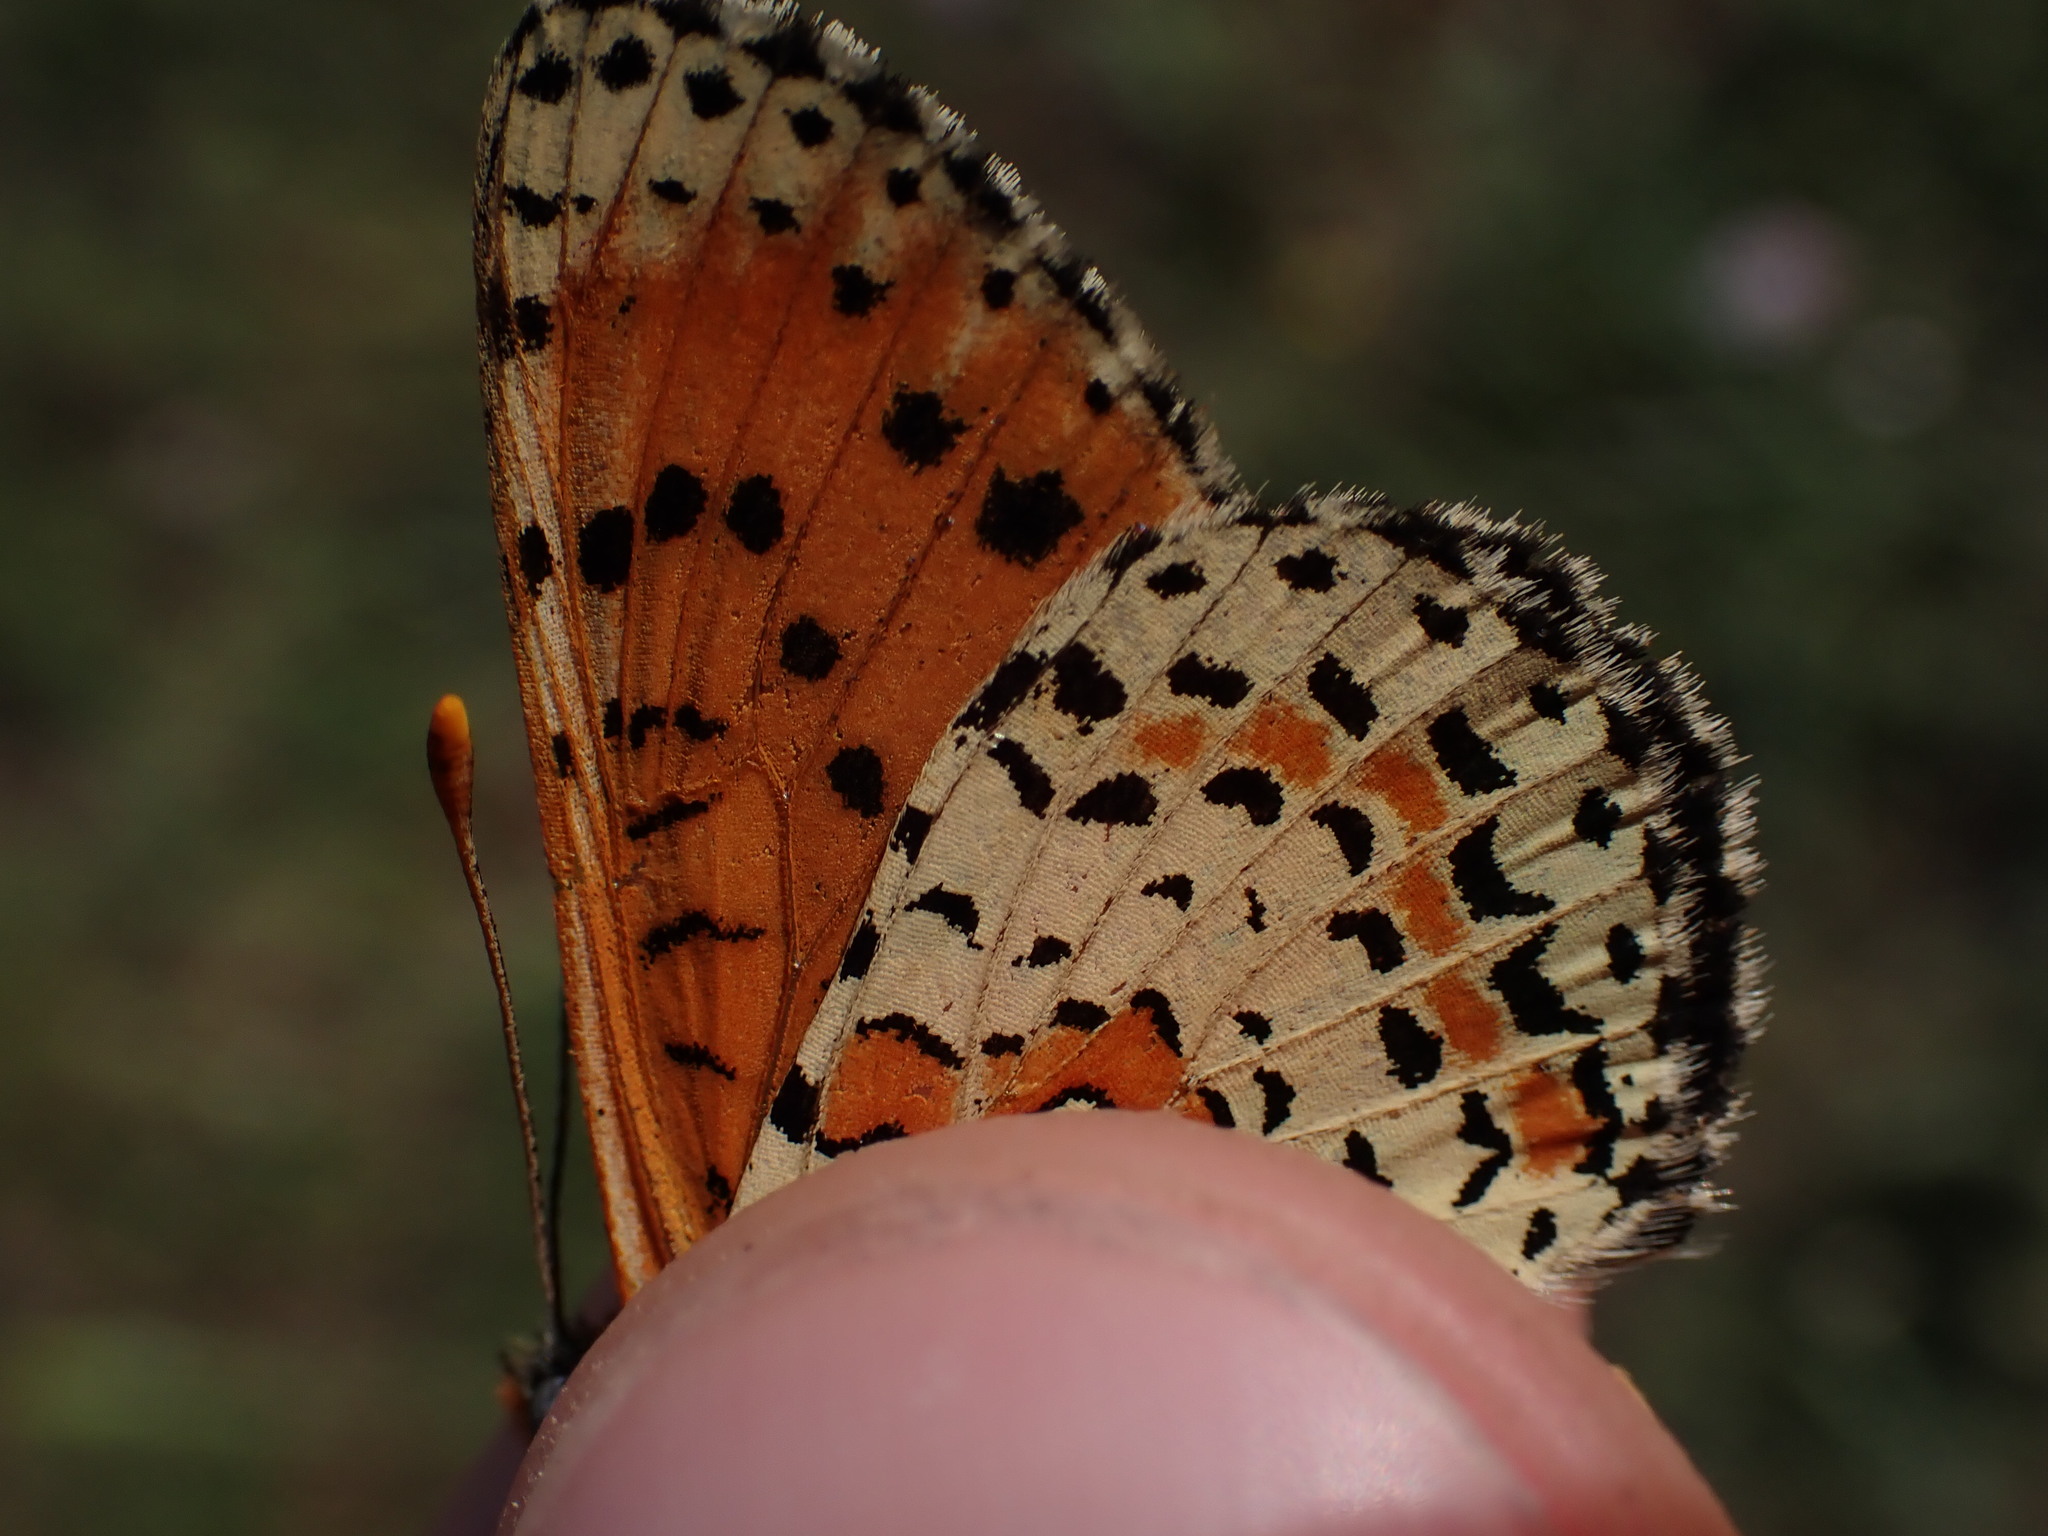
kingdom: Animalia
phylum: Arthropoda
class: Insecta
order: Lepidoptera
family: Nymphalidae
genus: Melitaea
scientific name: Melitaea didyma
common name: Spotted fritillary
